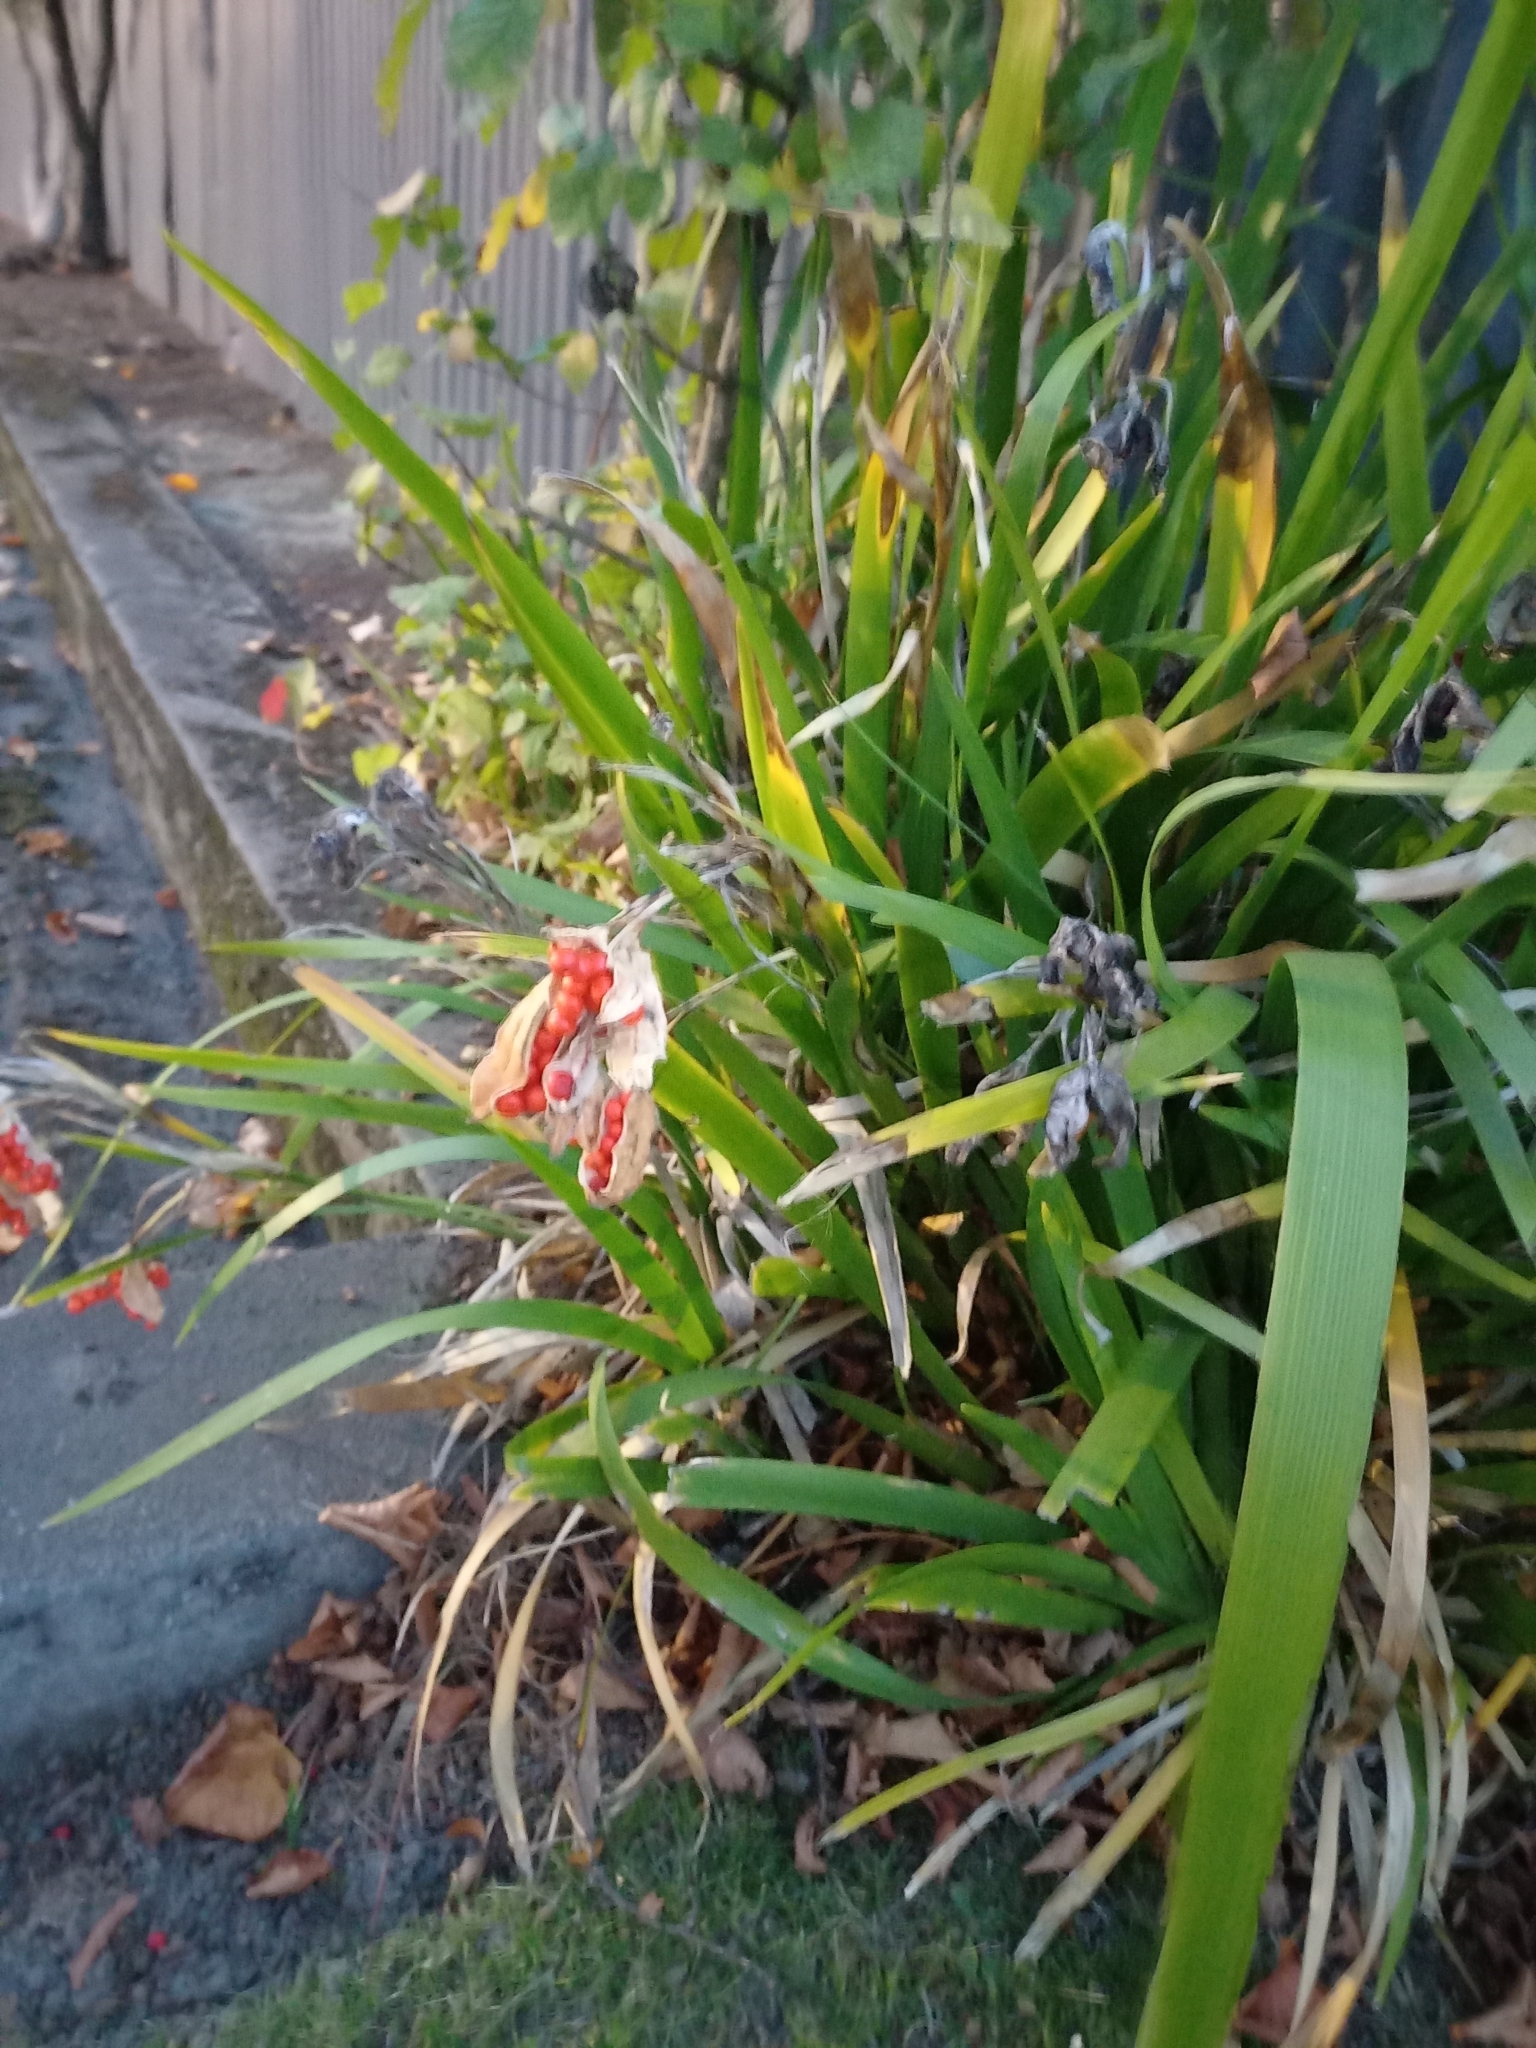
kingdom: Plantae
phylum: Tracheophyta
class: Liliopsida
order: Asparagales
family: Iridaceae
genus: Iris
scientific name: Iris foetidissima
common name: Stinking iris
